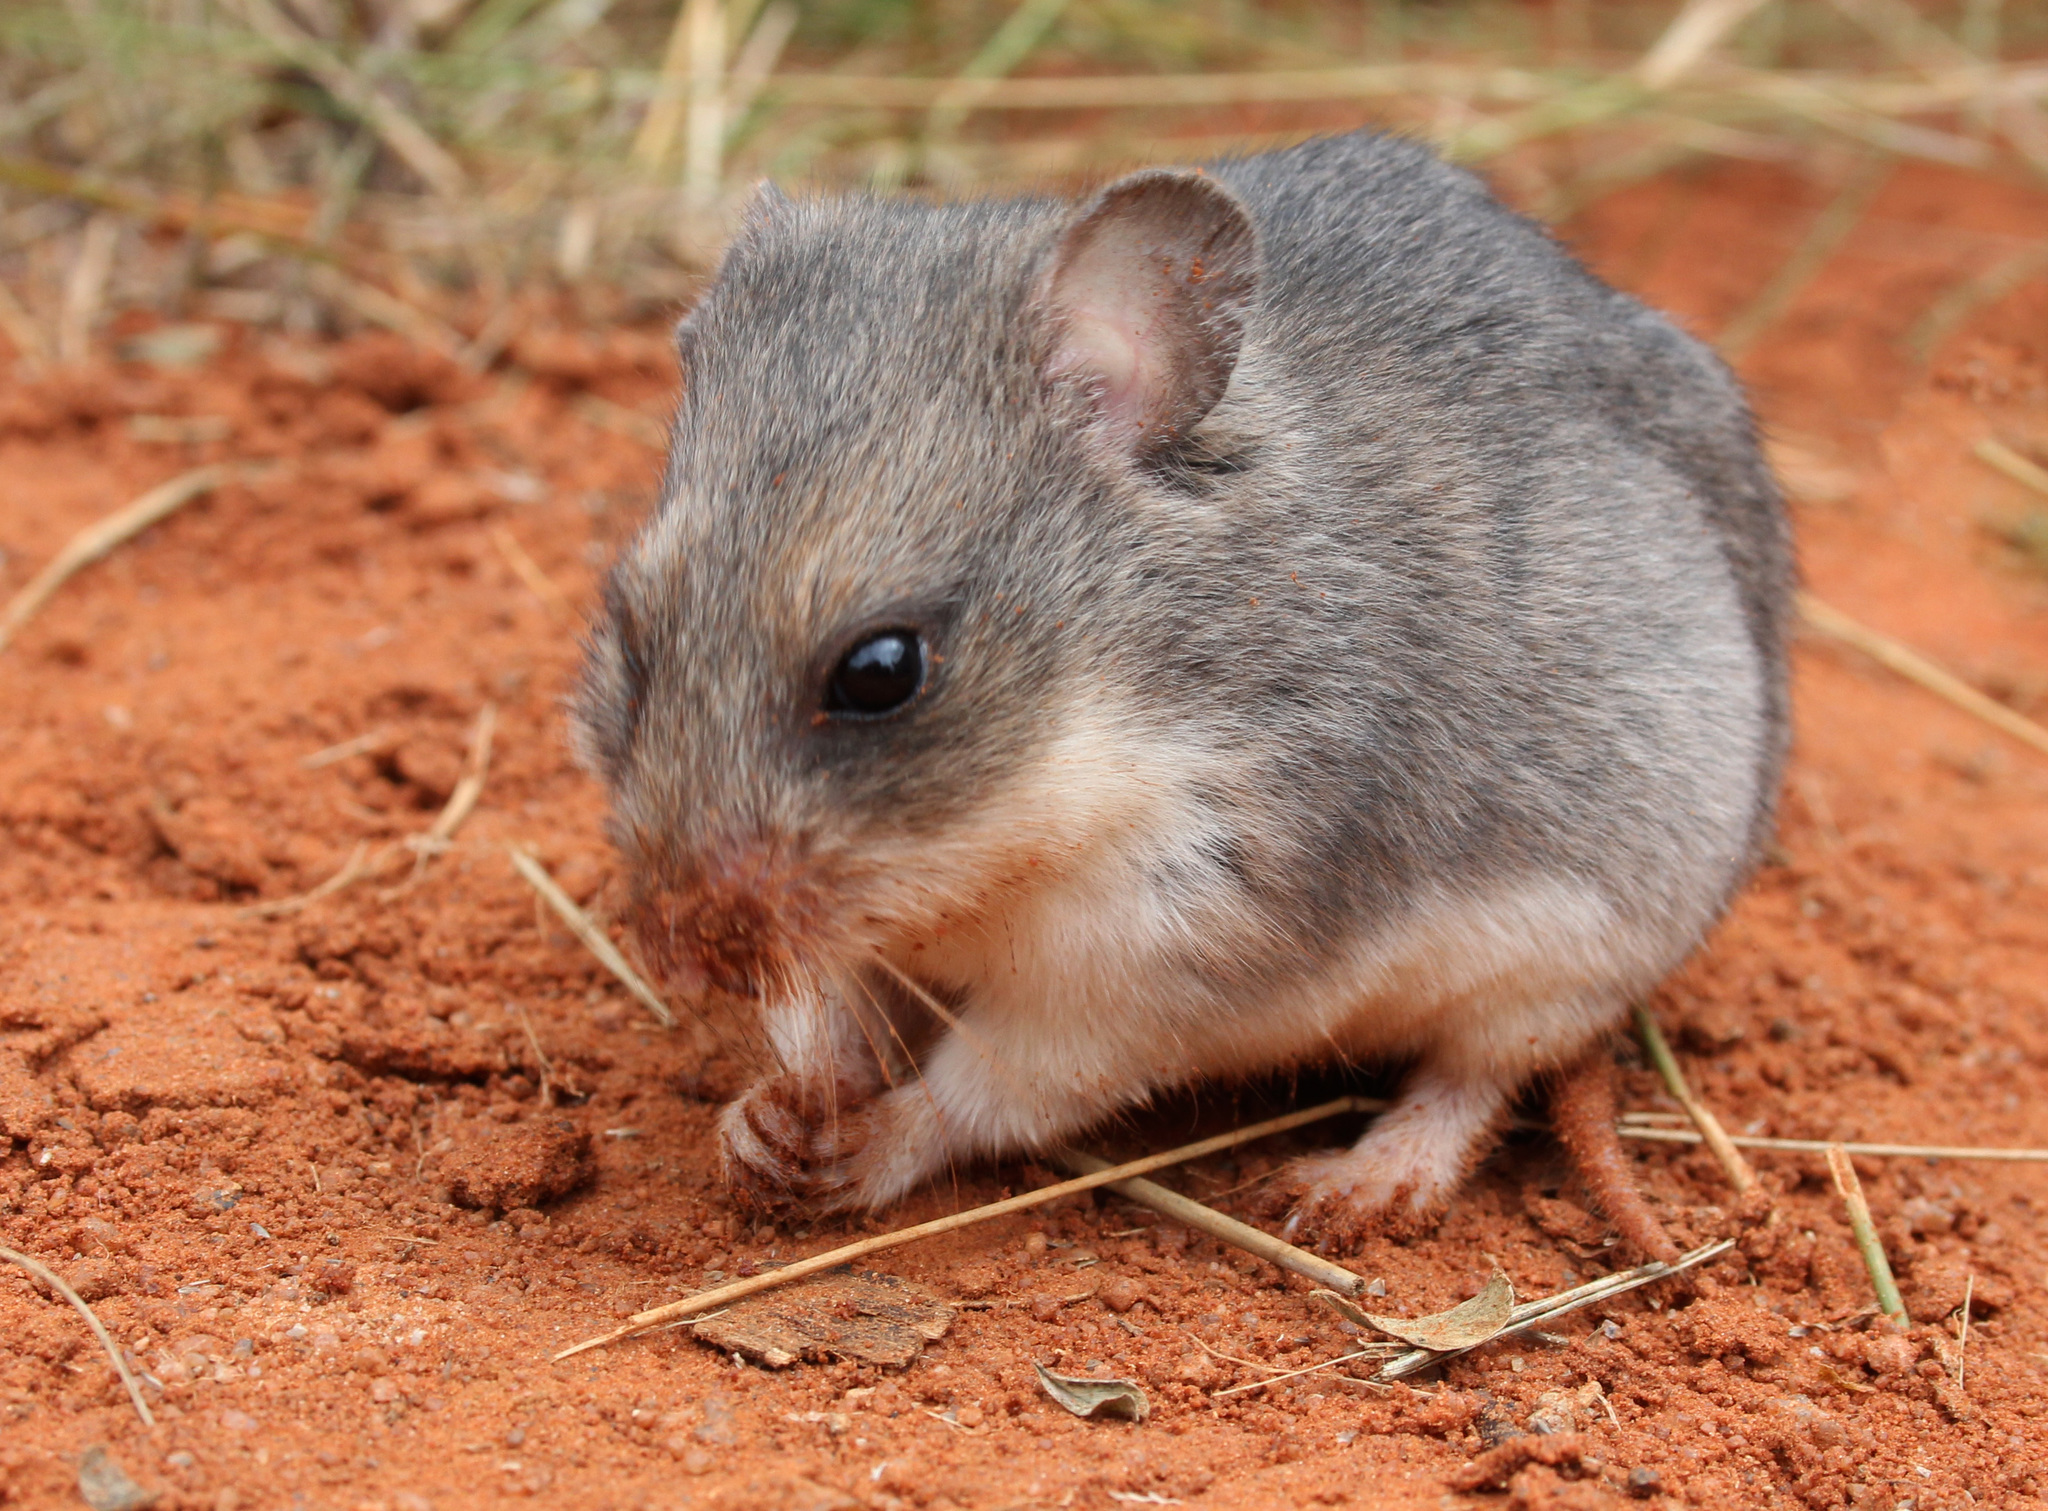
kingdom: Animalia
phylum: Chordata
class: Mammalia
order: Rodentia
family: Nesomyidae
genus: Saccostomus
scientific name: Saccostomus campestris
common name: Southern african pouched mouse
